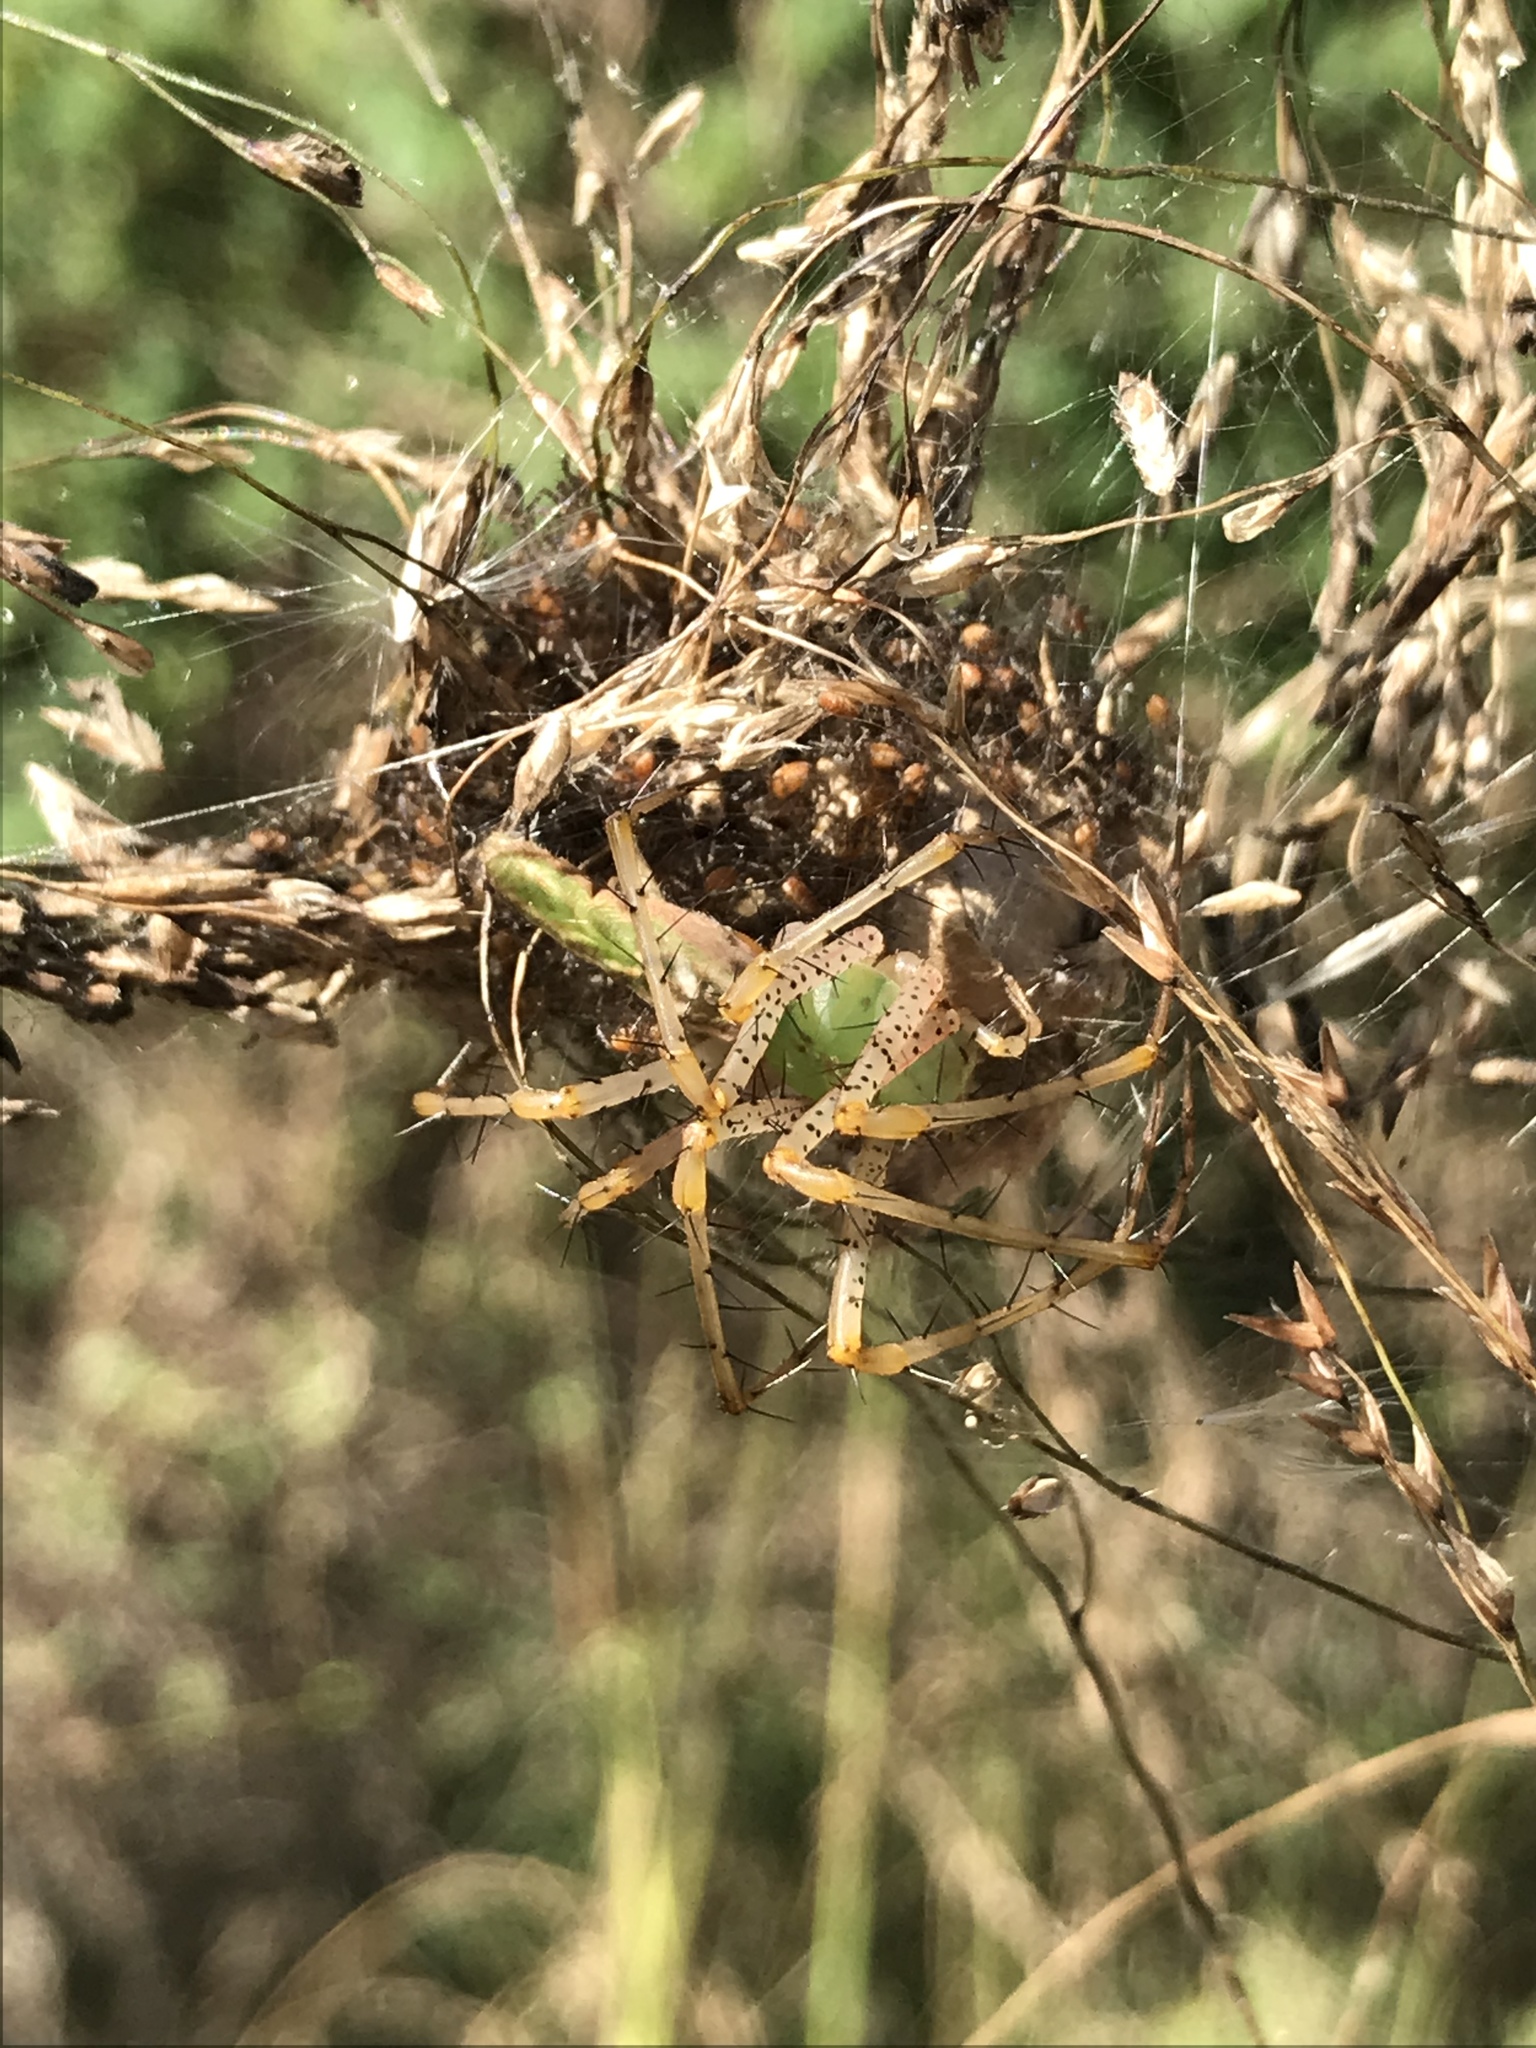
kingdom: Animalia
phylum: Arthropoda
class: Arachnida
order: Araneae
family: Oxyopidae
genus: Peucetia
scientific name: Peucetia viridans
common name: Lynx spiders
